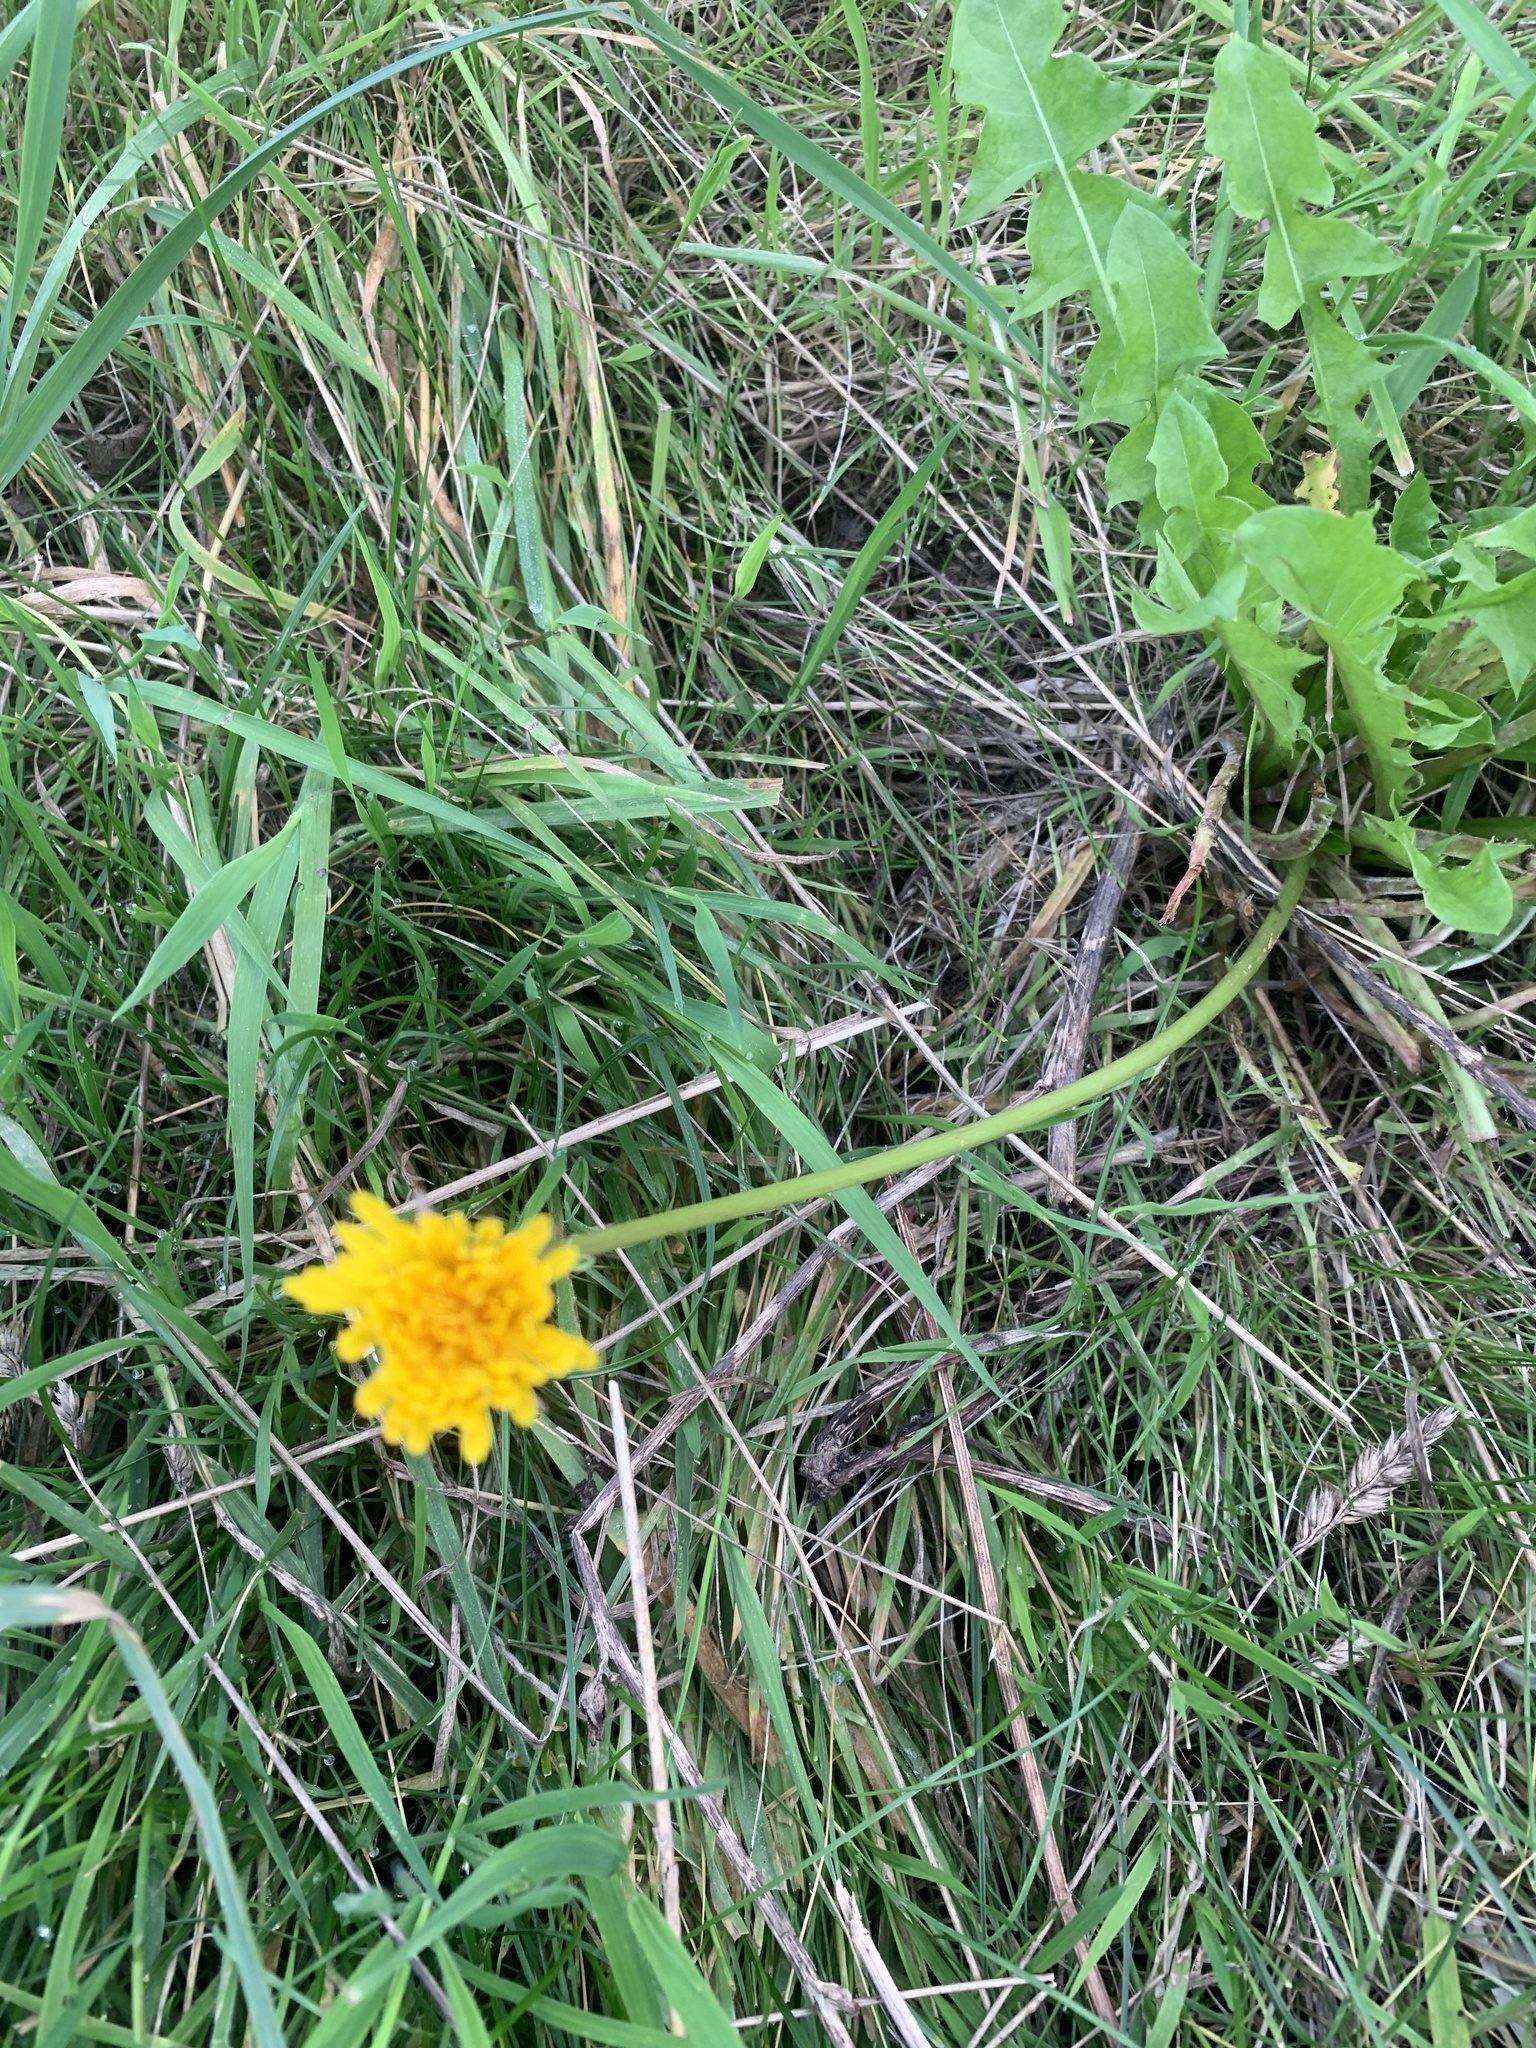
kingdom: Plantae
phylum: Tracheophyta
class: Magnoliopsida
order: Asterales
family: Asteraceae
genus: Taraxacum
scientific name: Taraxacum officinale
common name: Common dandelion
